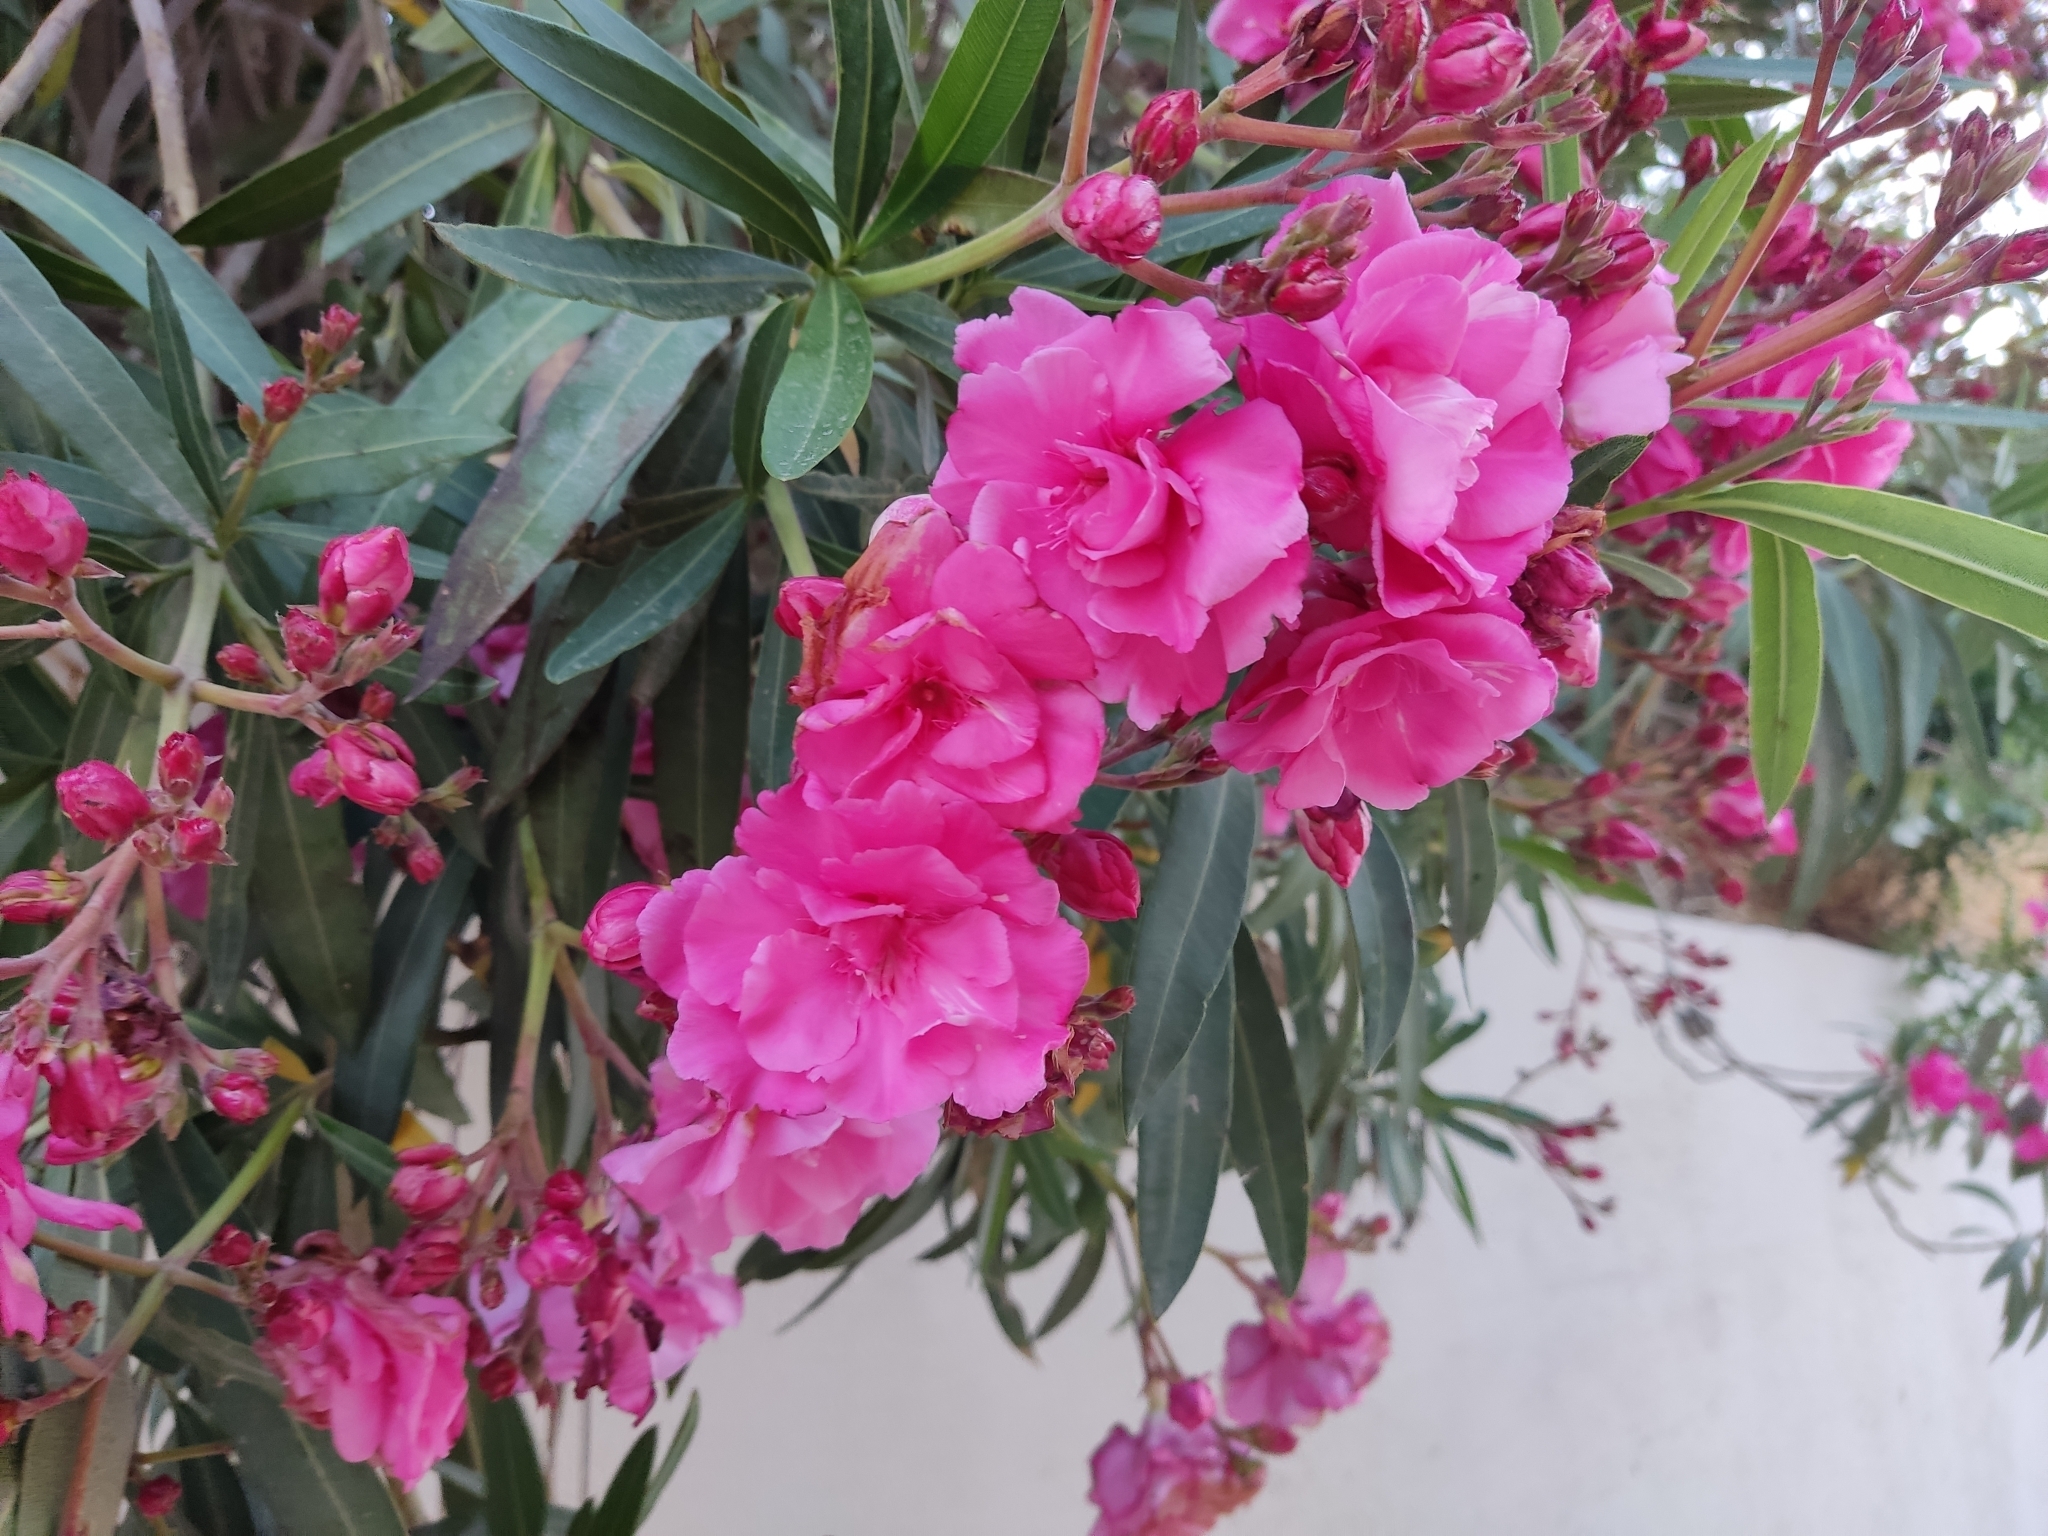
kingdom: Plantae
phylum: Tracheophyta
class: Magnoliopsida
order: Gentianales
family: Apocynaceae
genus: Nerium
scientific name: Nerium oleander
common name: Oleander
